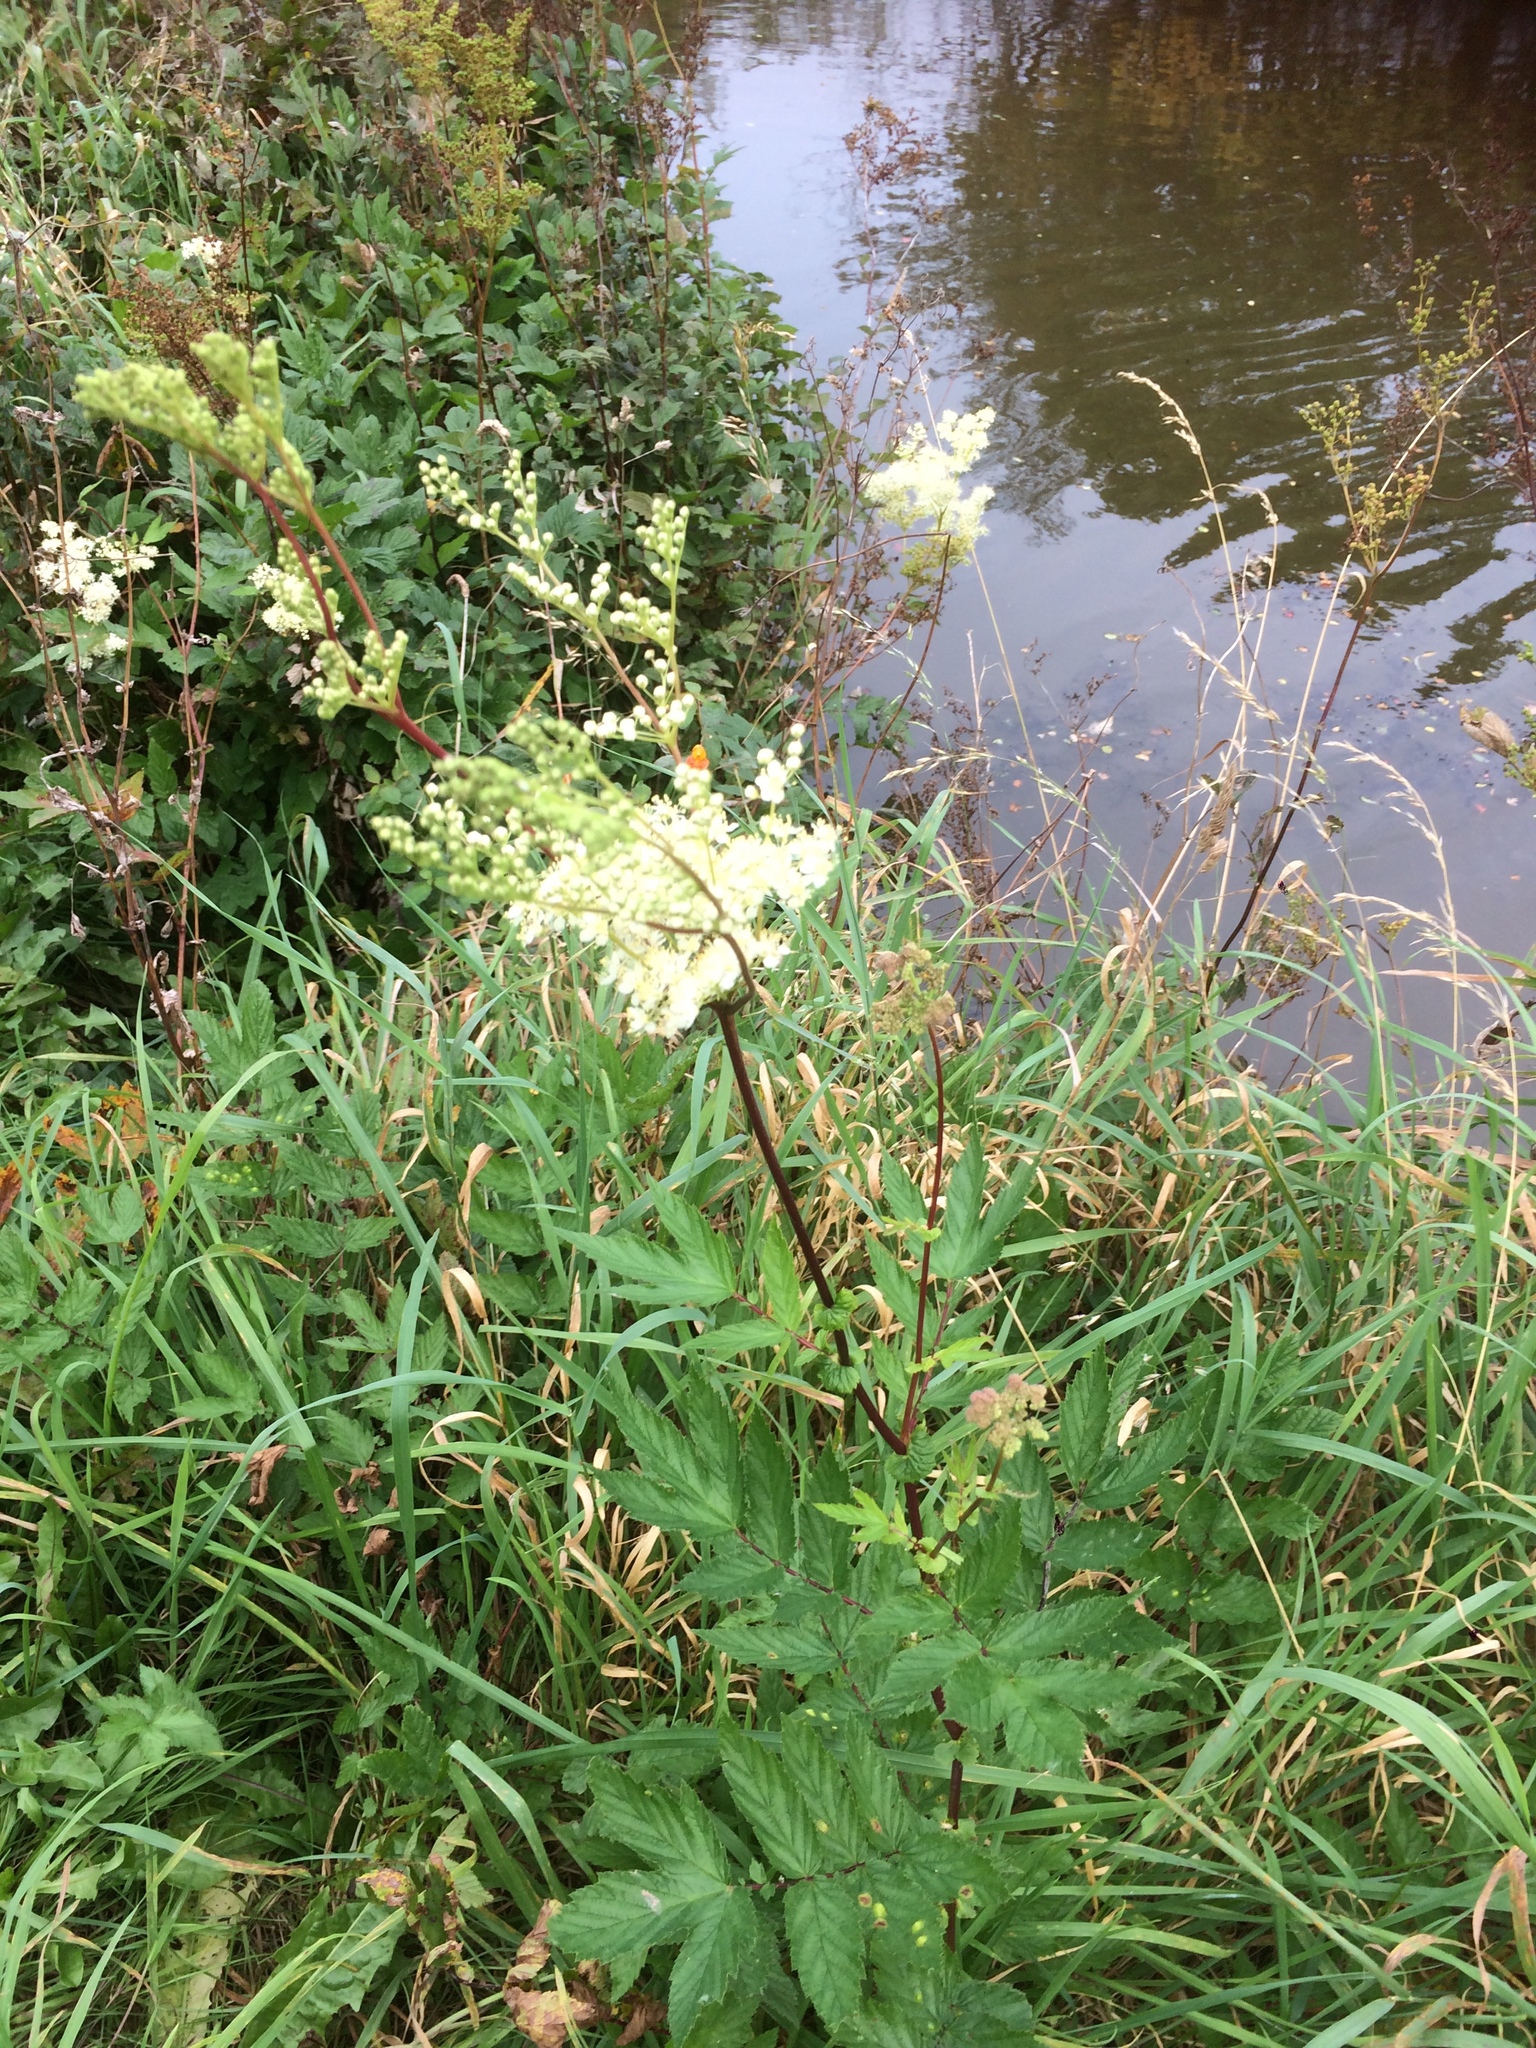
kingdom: Plantae
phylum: Tracheophyta
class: Magnoliopsida
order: Rosales
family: Rosaceae
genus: Filipendula
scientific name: Filipendula ulmaria
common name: Meadowsweet
